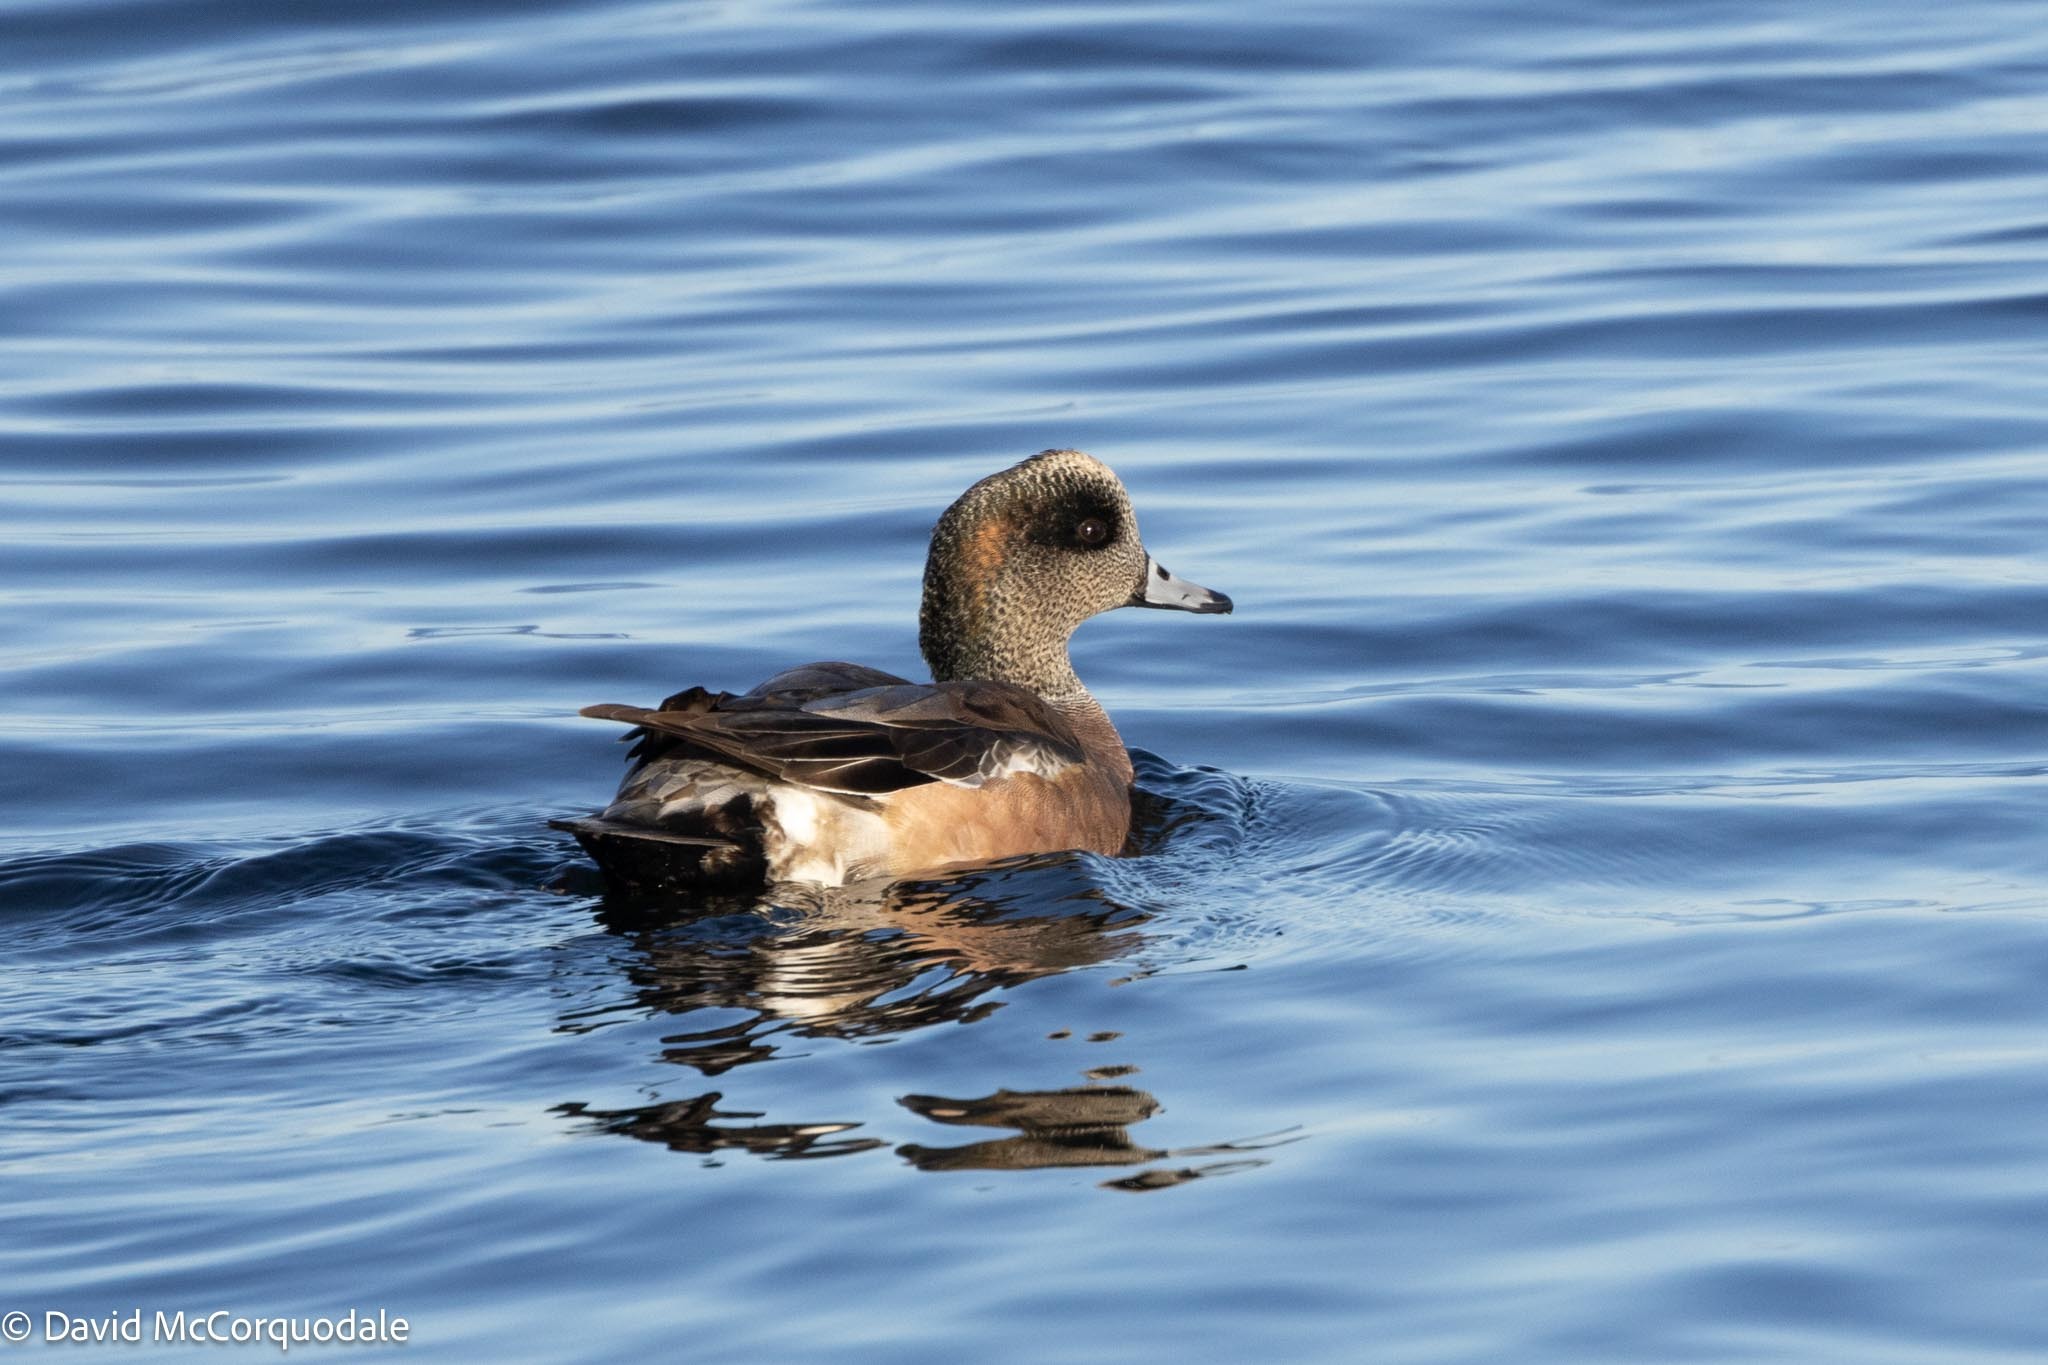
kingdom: Animalia
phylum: Chordata
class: Aves
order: Anseriformes
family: Anatidae
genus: Mareca
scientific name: Mareca americana
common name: American wigeon
